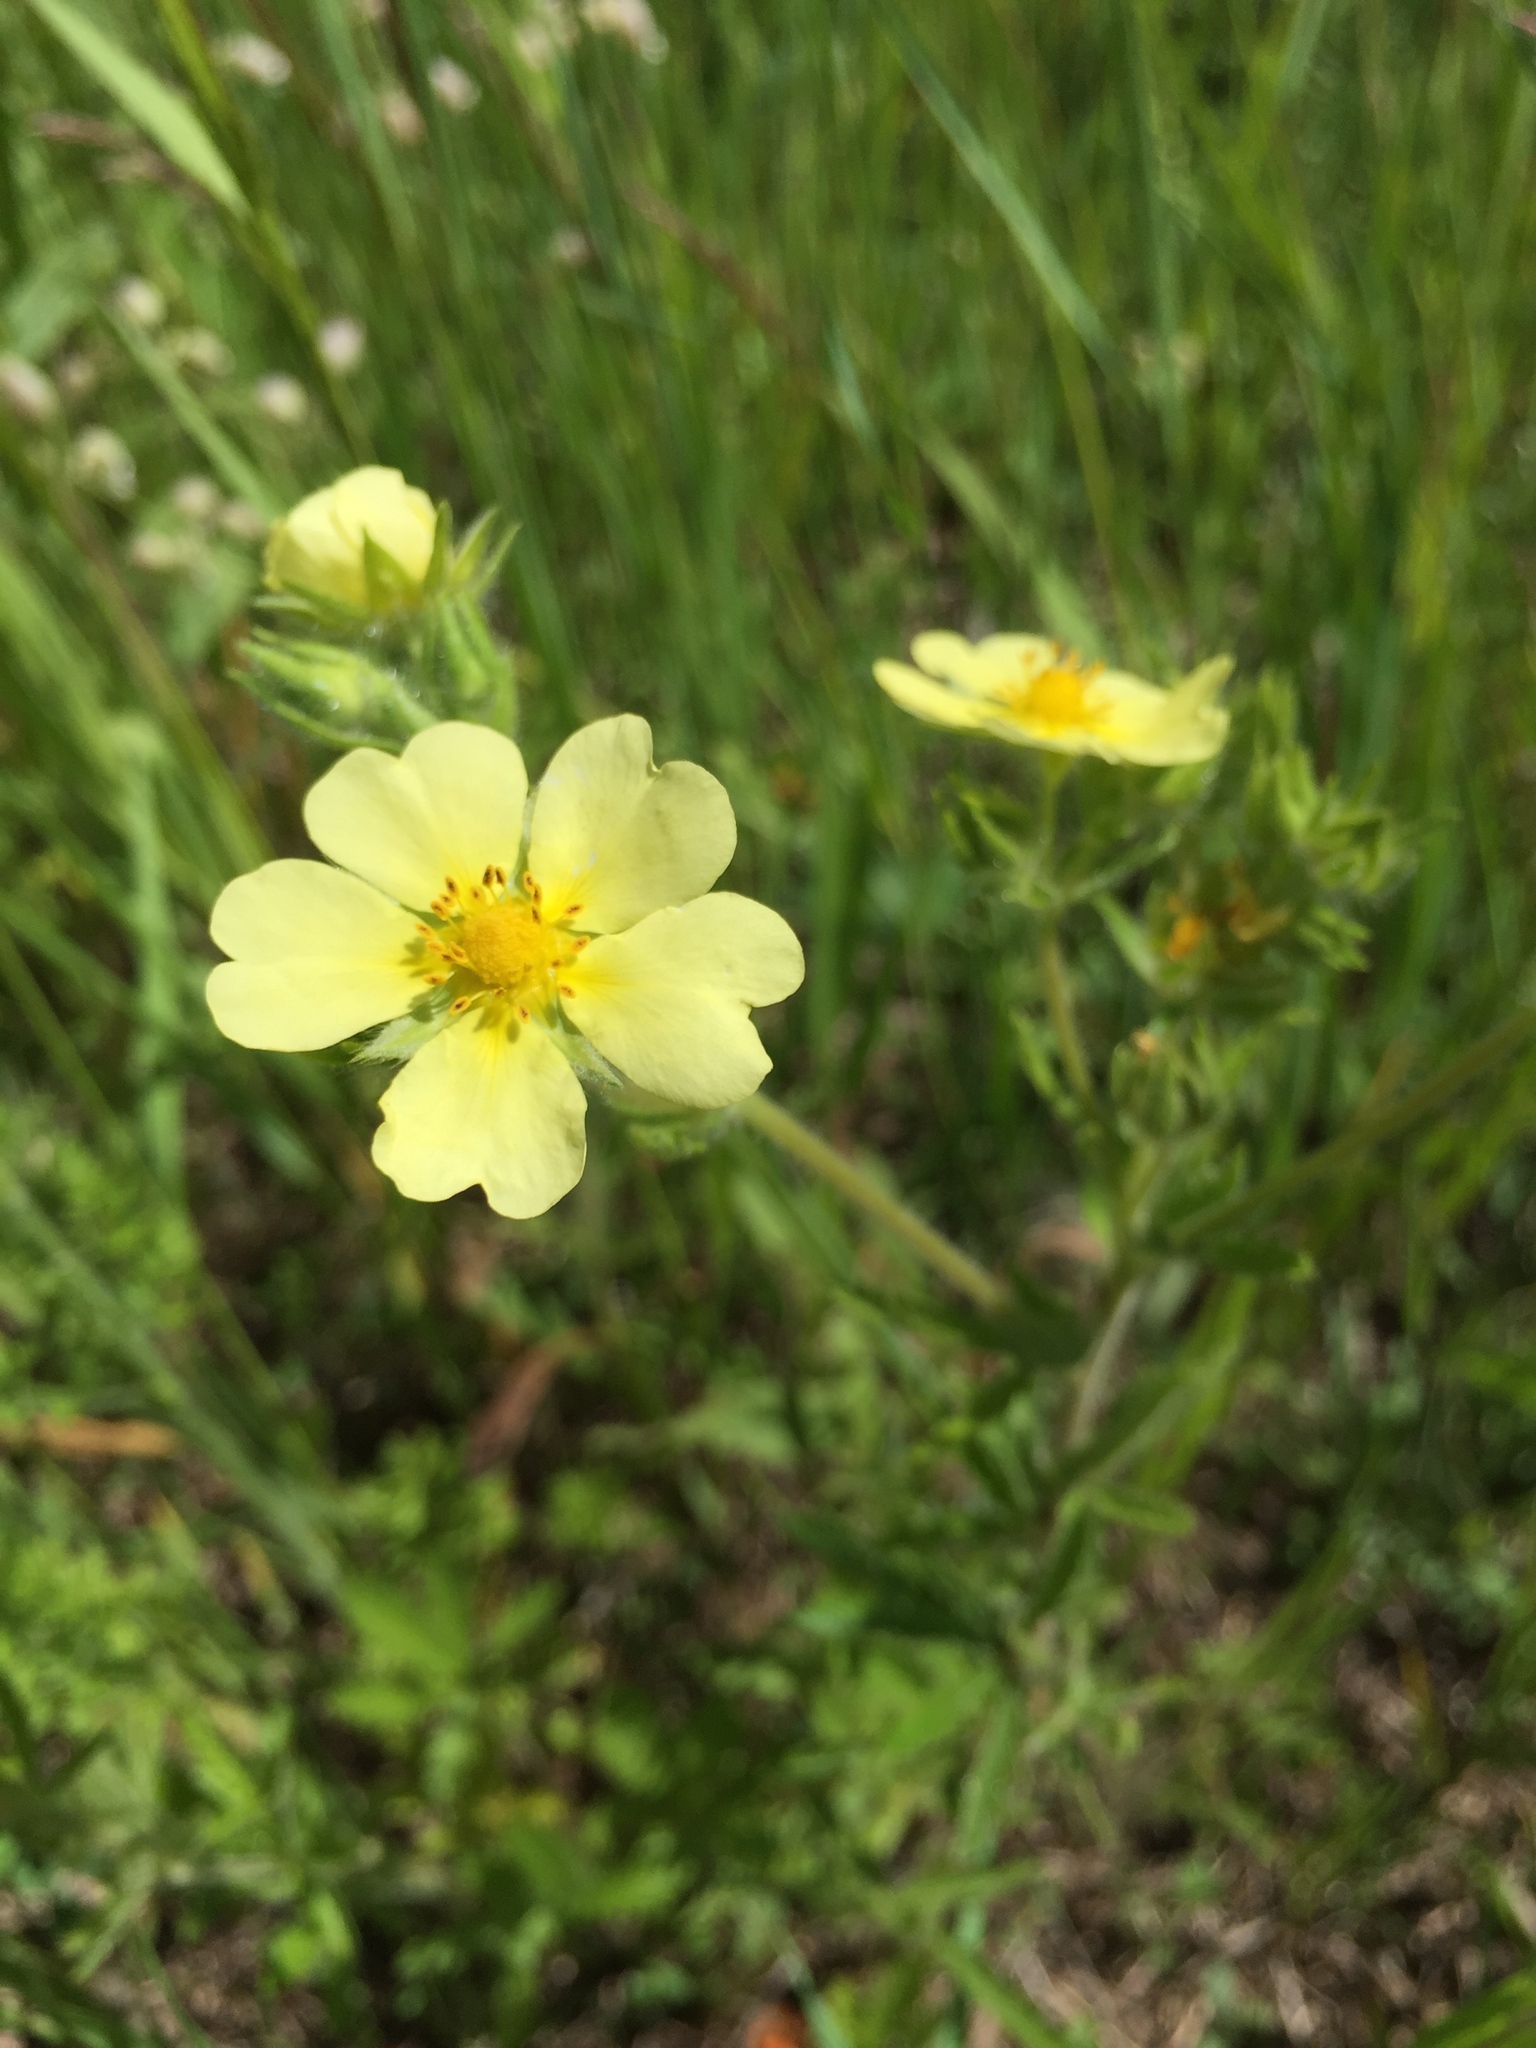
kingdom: Plantae
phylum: Tracheophyta
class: Magnoliopsida
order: Rosales
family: Rosaceae
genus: Potentilla
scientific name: Potentilla recta
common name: Sulphur cinquefoil
